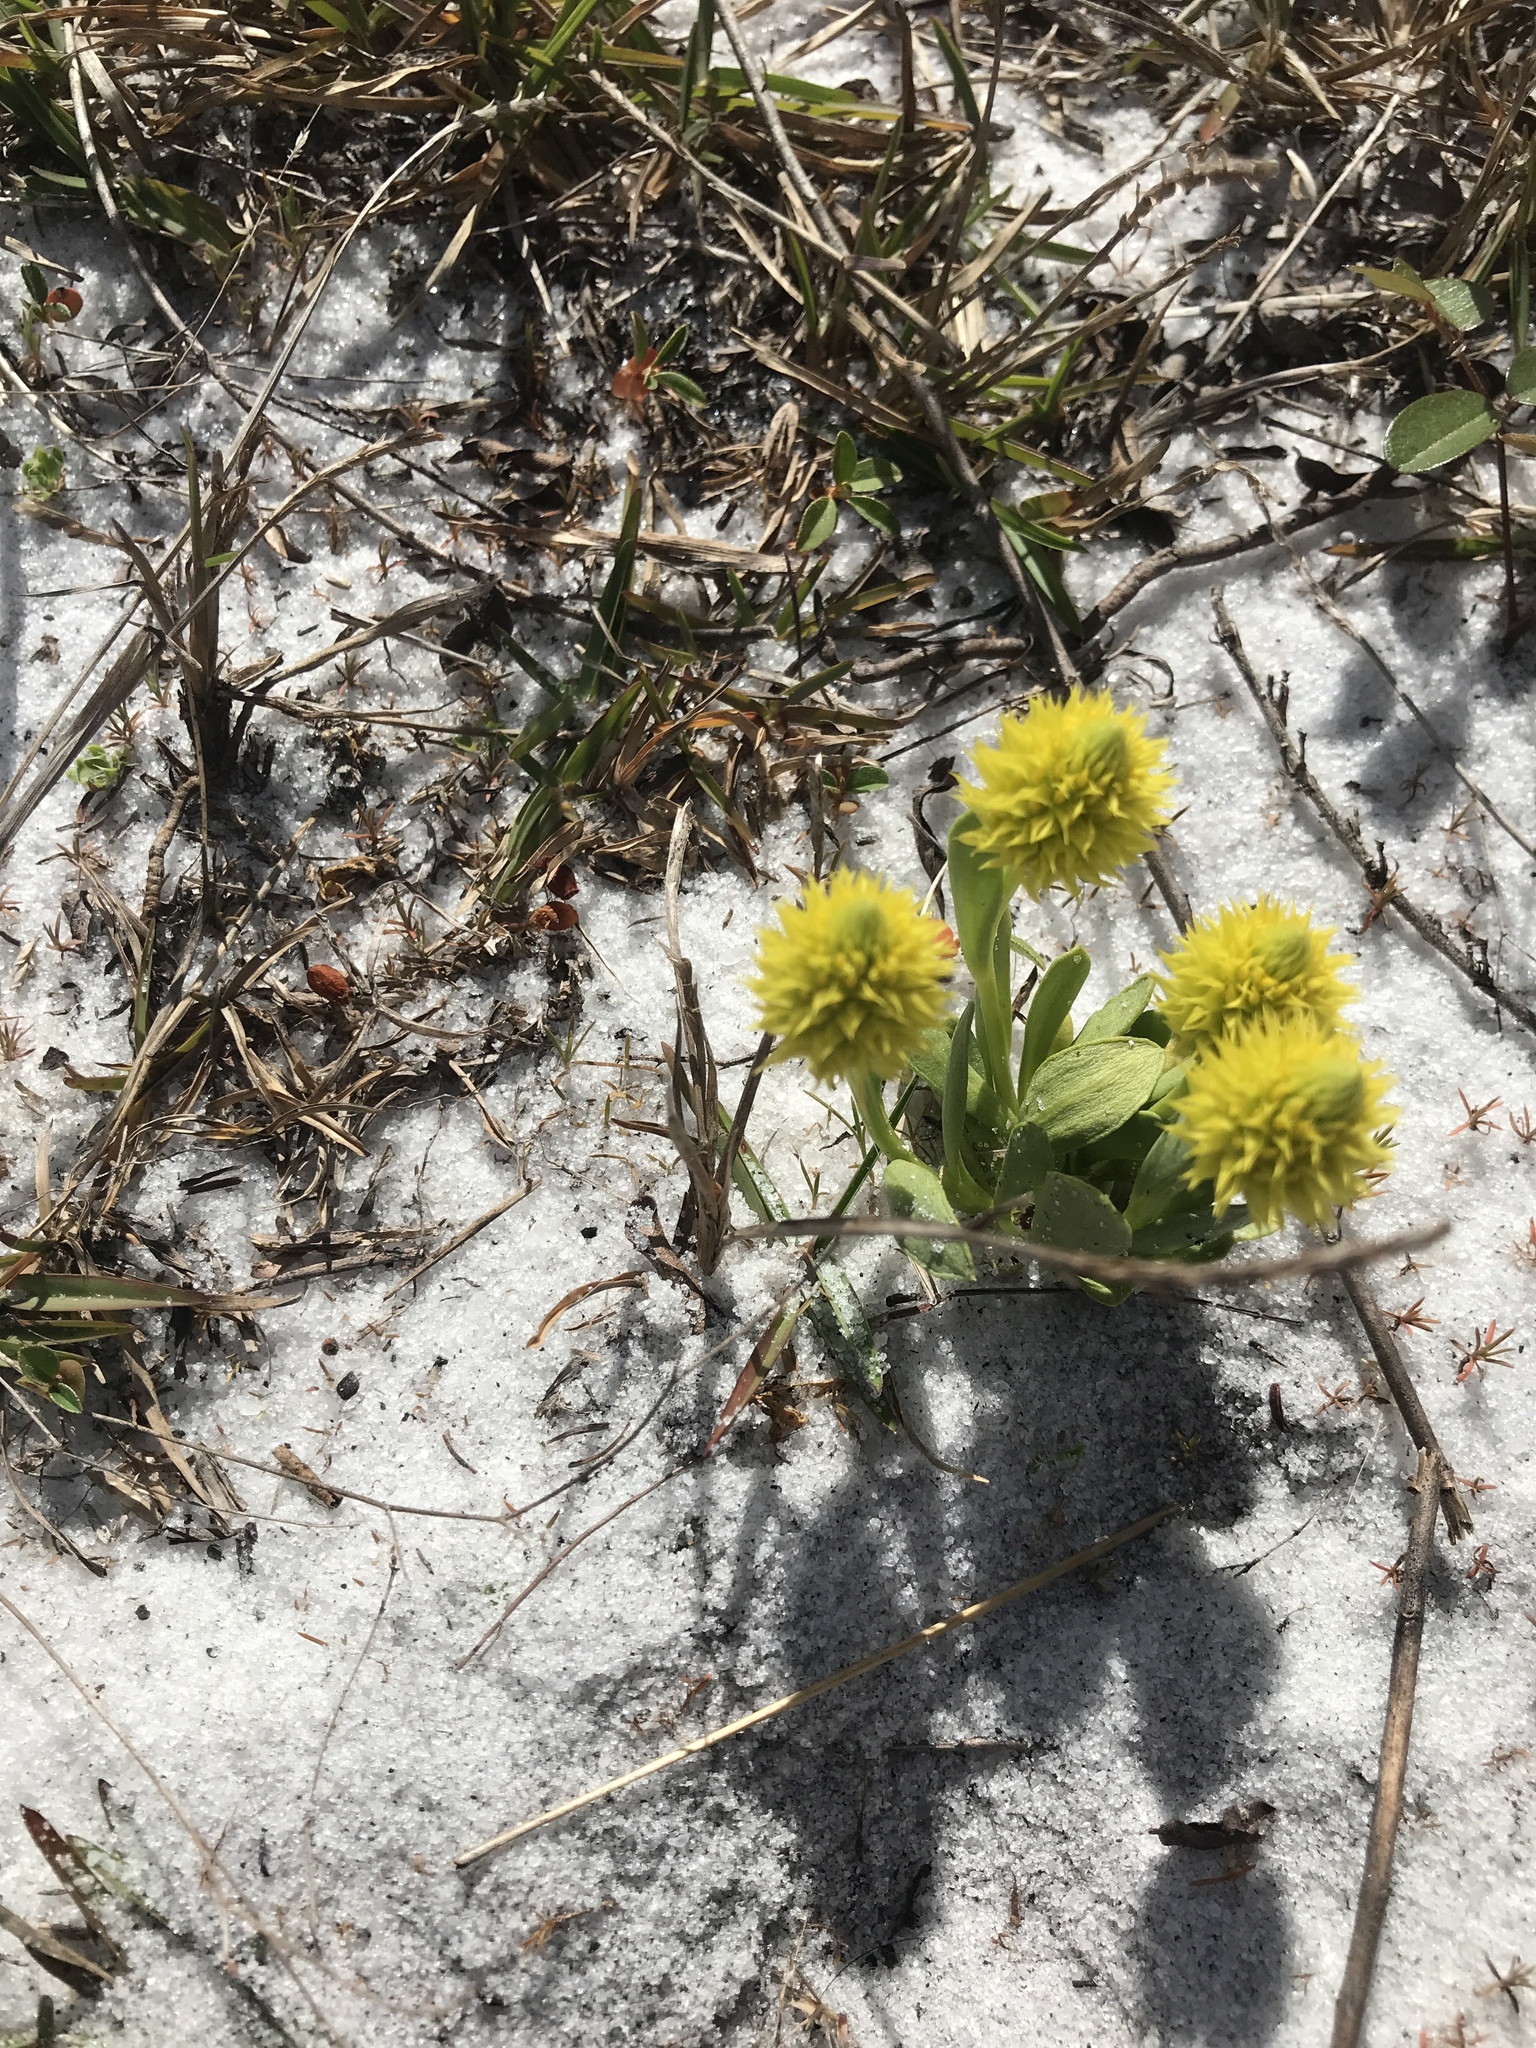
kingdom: Plantae
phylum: Tracheophyta
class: Magnoliopsida
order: Fabales
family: Polygalaceae
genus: Polygala
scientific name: Polygala nana
